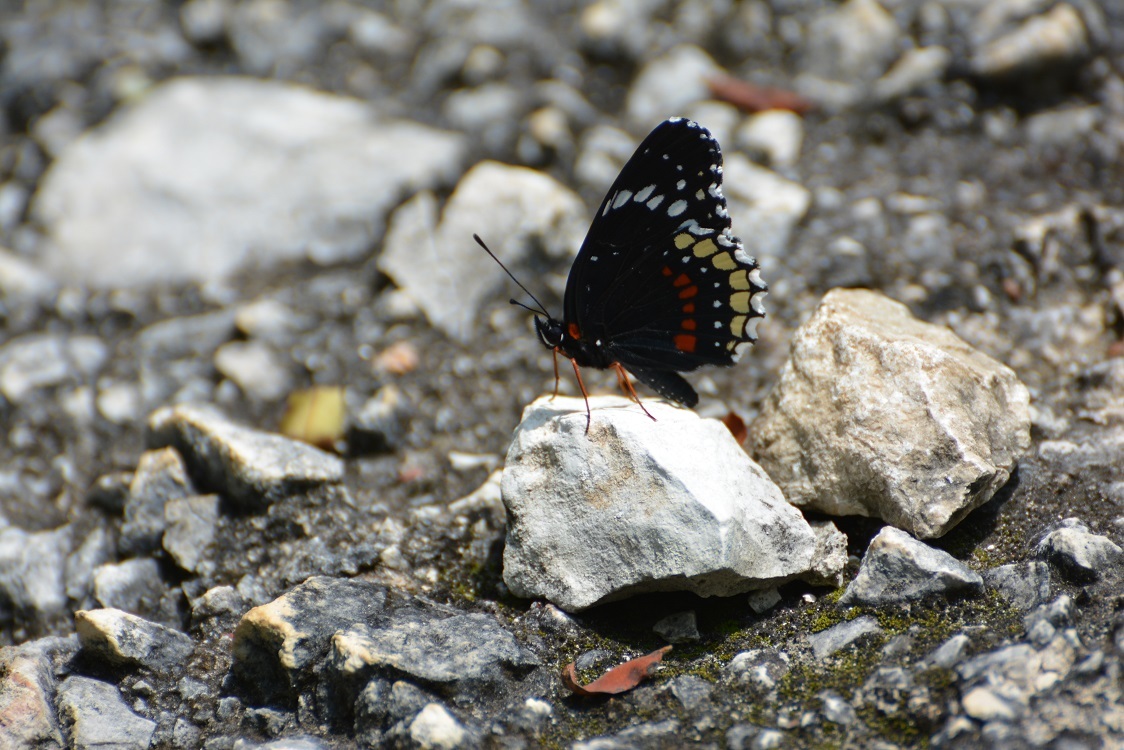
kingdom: Animalia
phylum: Arthropoda
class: Insecta
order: Lepidoptera
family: Nymphalidae
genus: Chlosyne
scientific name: Chlosyne hippodrome
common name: Simple patch
